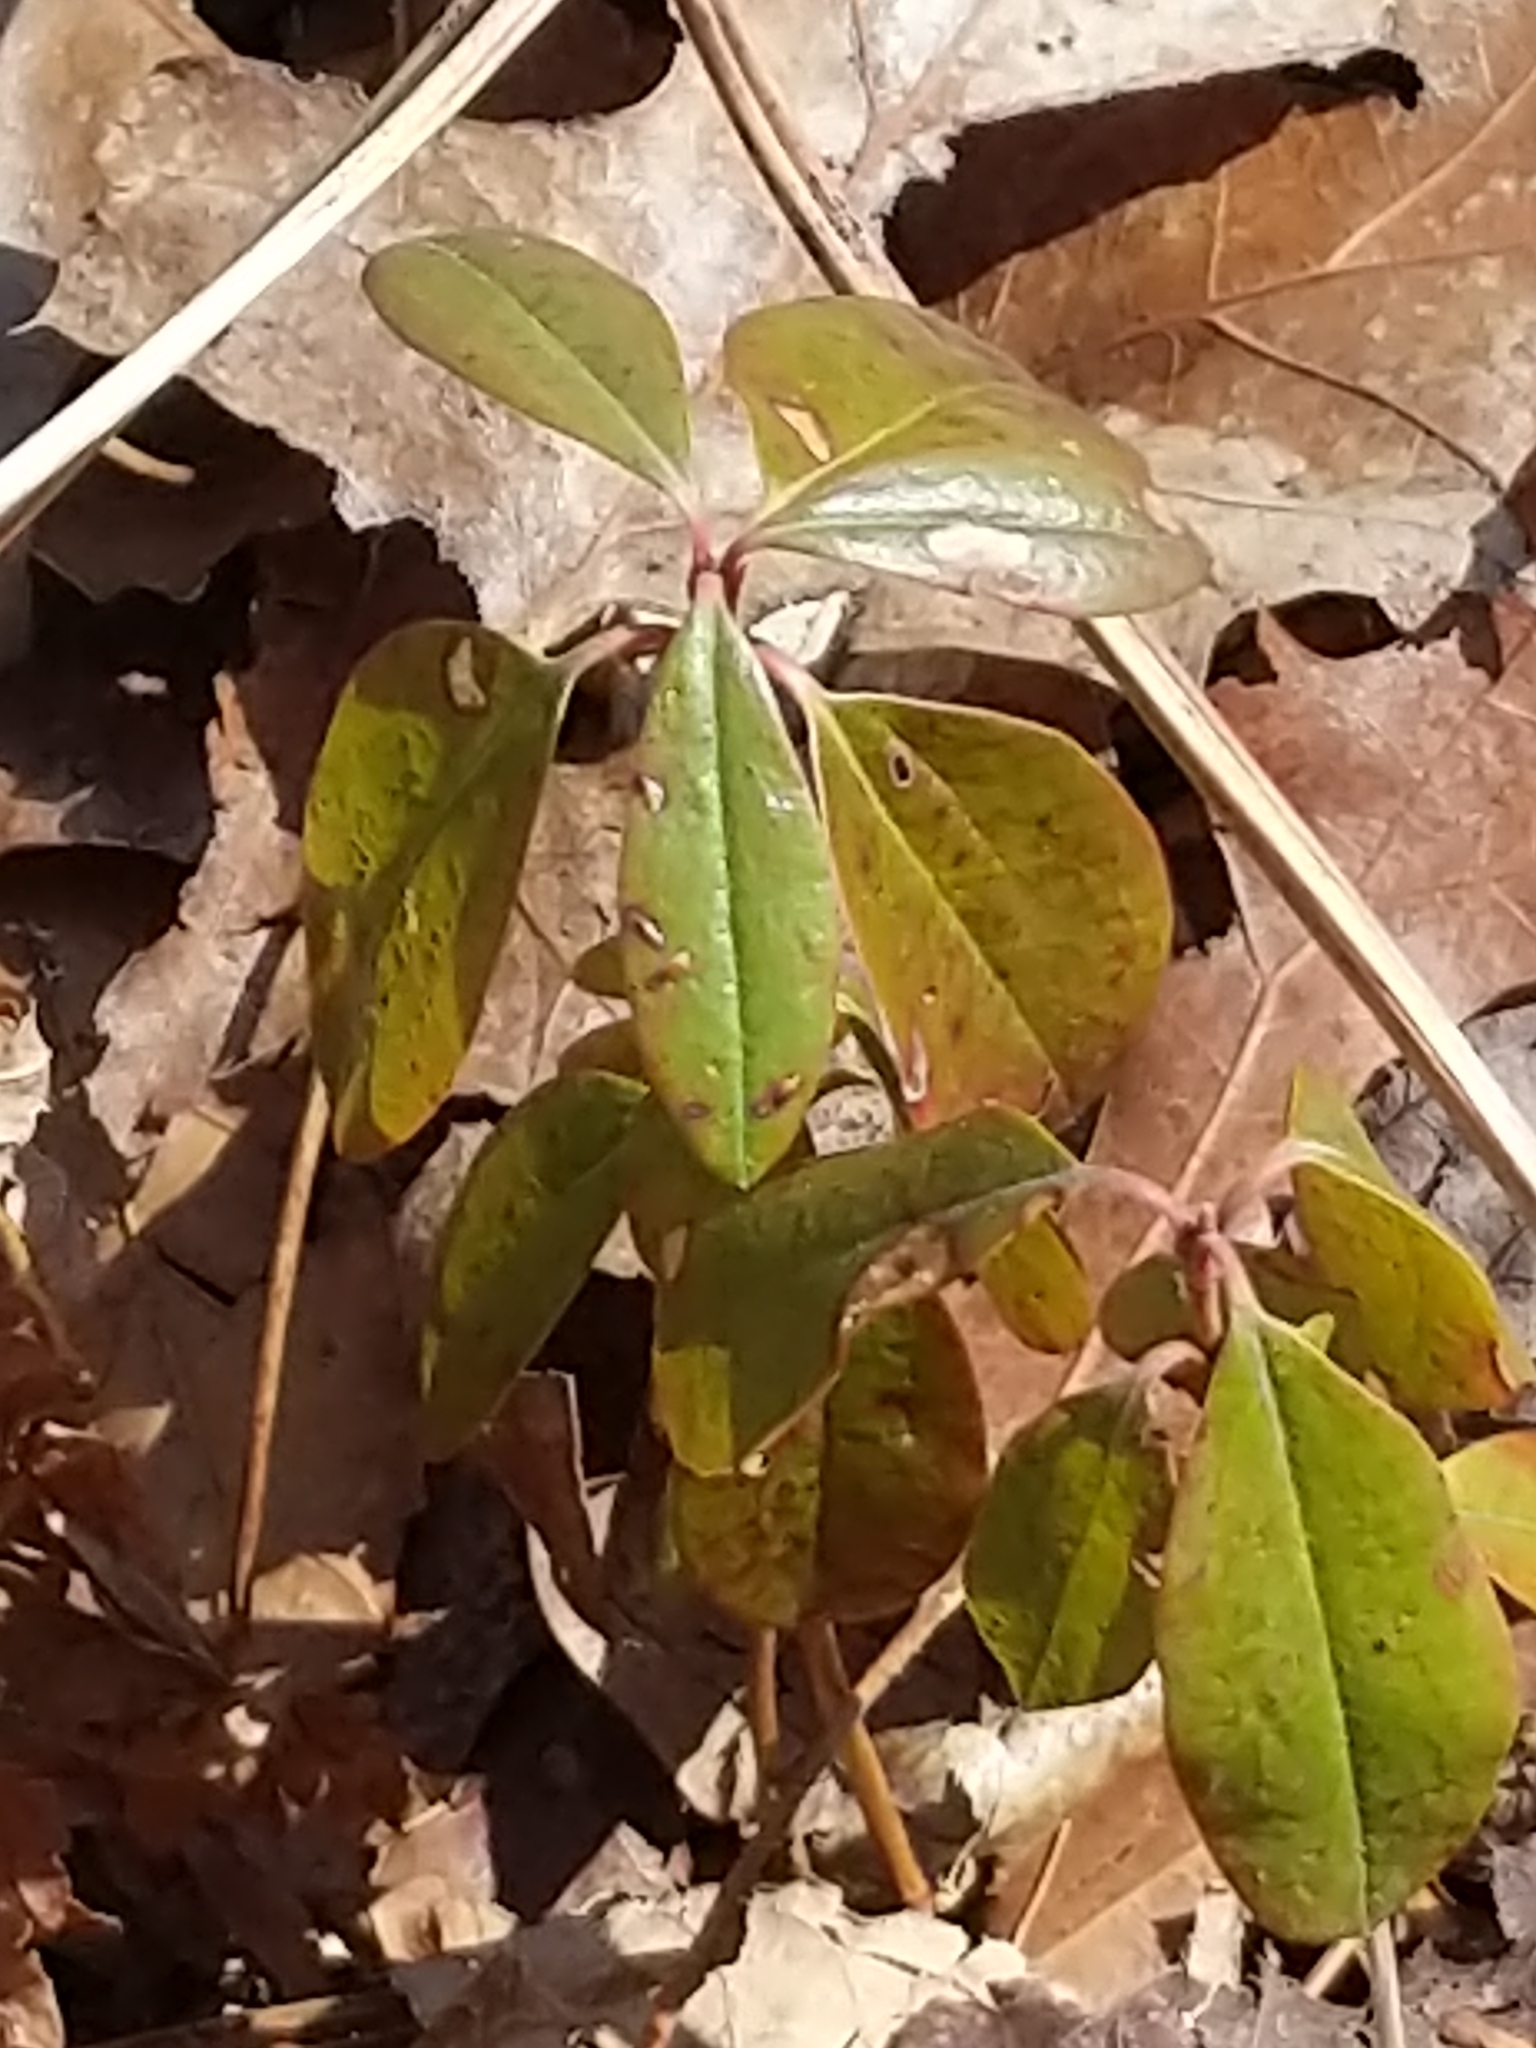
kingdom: Plantae
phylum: Tracheophyta
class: Magnoliopsida
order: Ericales
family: Ericaceae
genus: Kalmia
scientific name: Kalmia angustifolia
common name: Sheep-laurel
